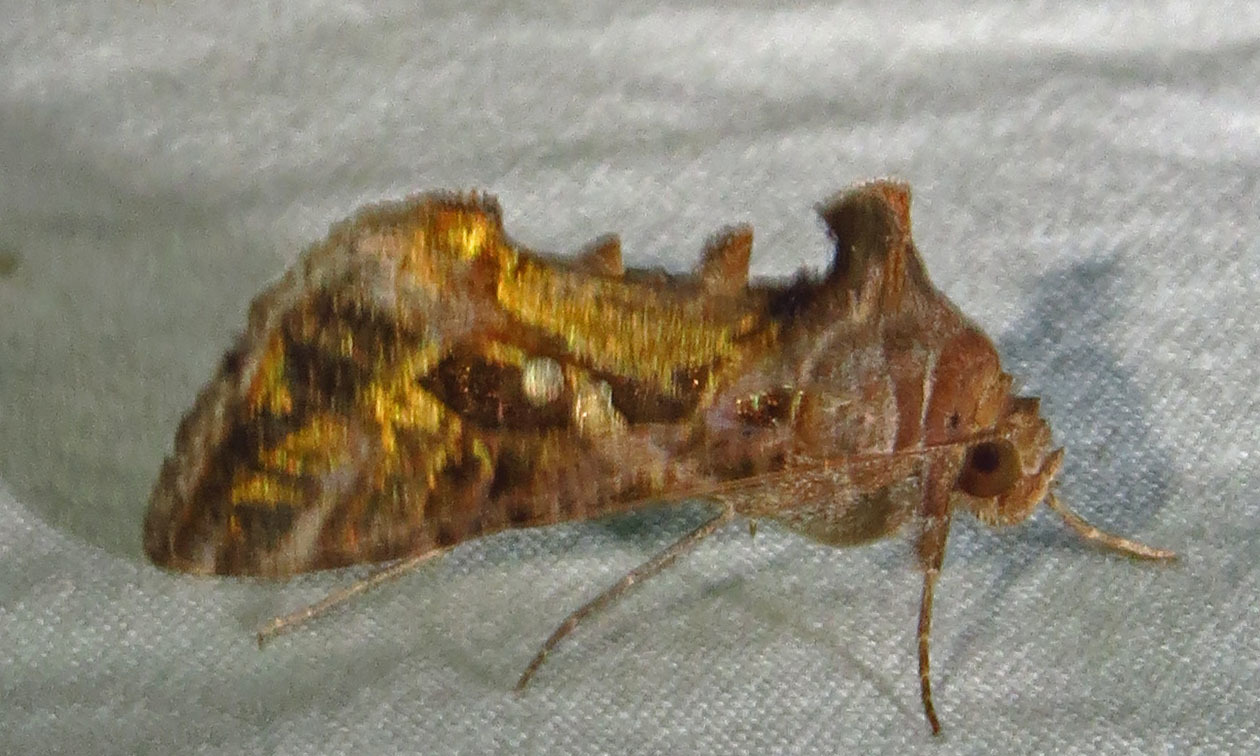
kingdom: Animalia
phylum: Arthropoda
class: Insecta
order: Lepidoptera
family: Noctuidae
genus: Chrysodeixis
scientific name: Chrysodeixis includens
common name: Cutworm moth
